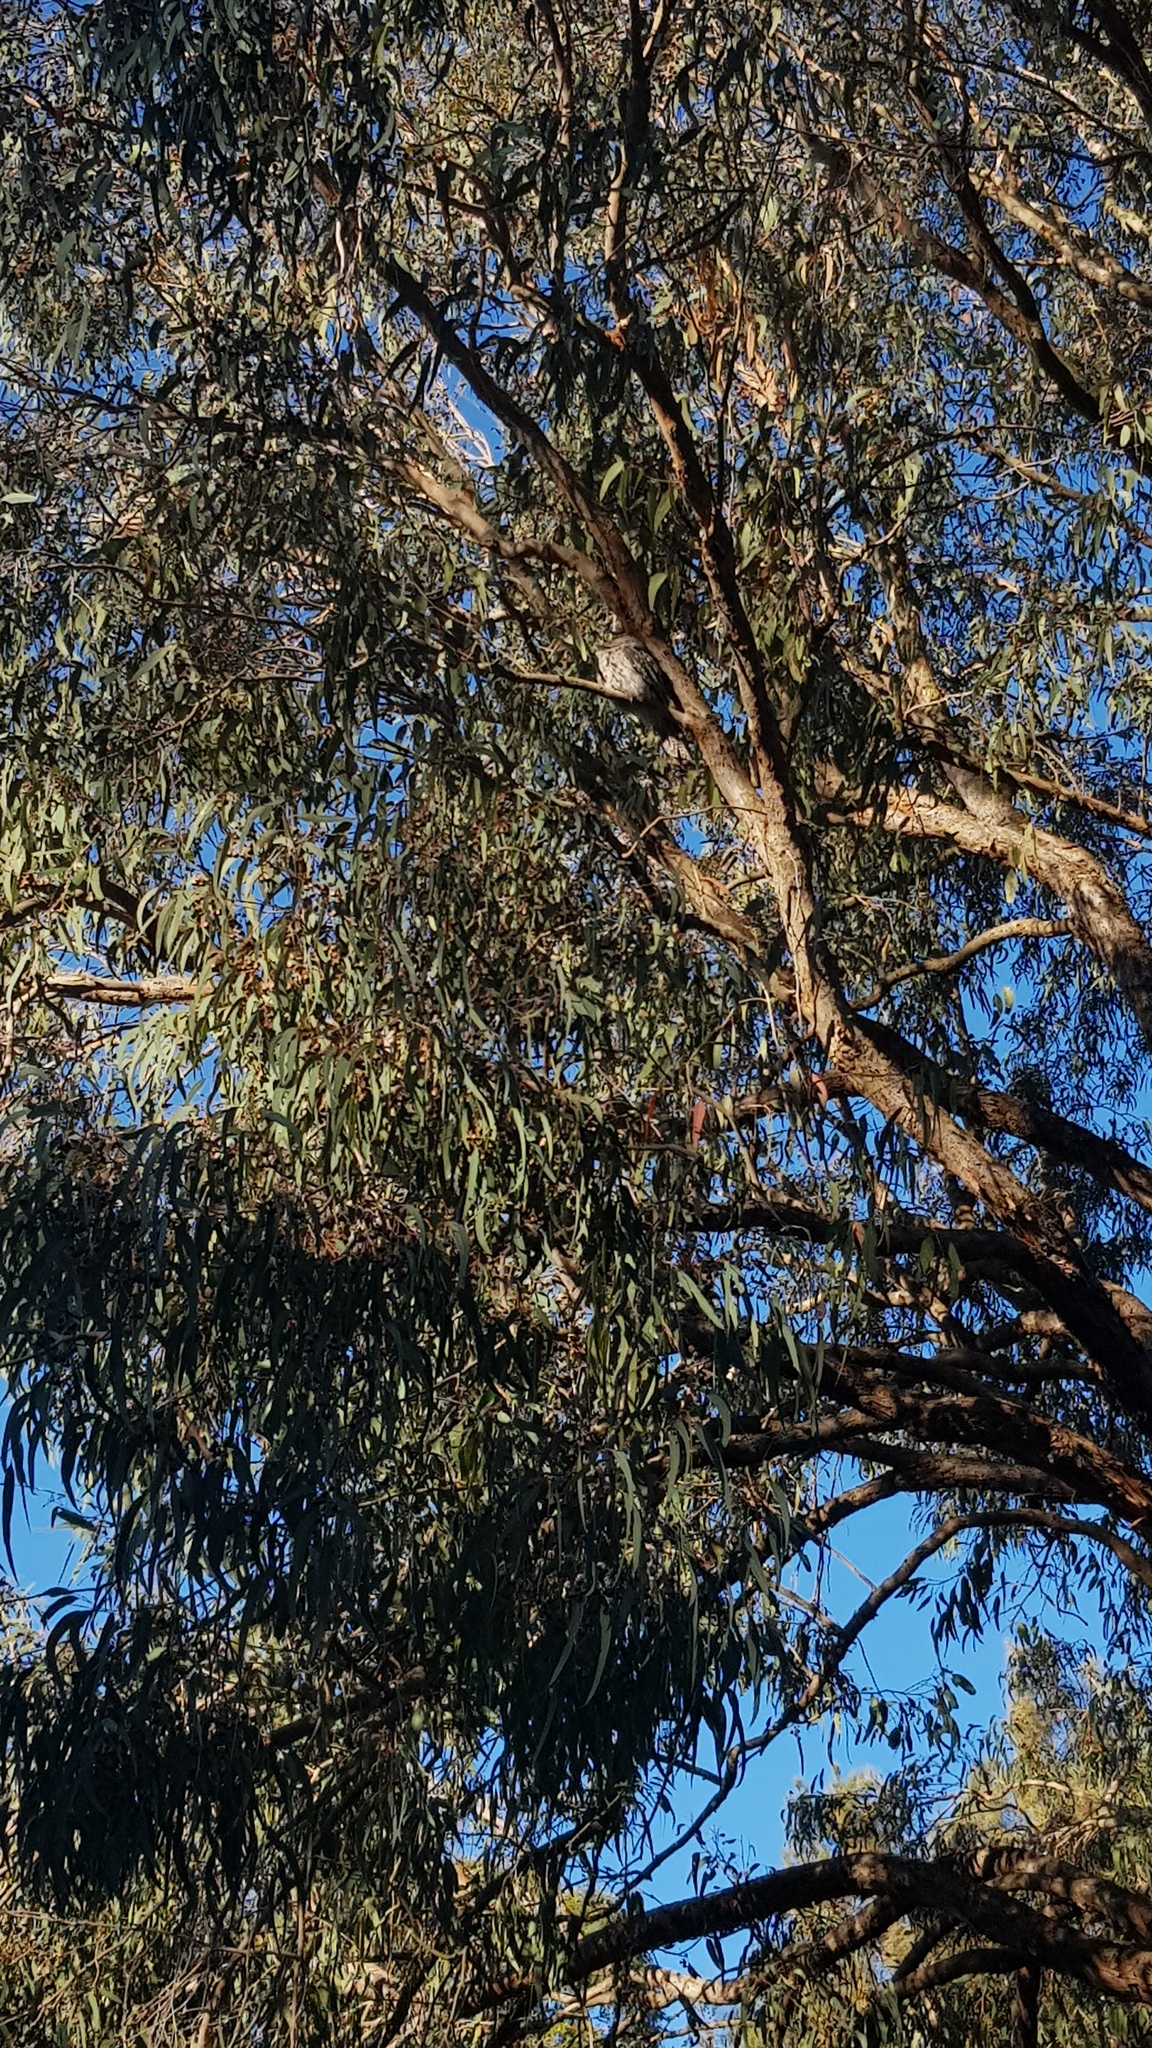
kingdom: Animalia
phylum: Chordata
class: Aves
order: Caprimulgiformes
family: Podargidae
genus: Podargus
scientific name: Podargus strigoides
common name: Tawny frogmouth
